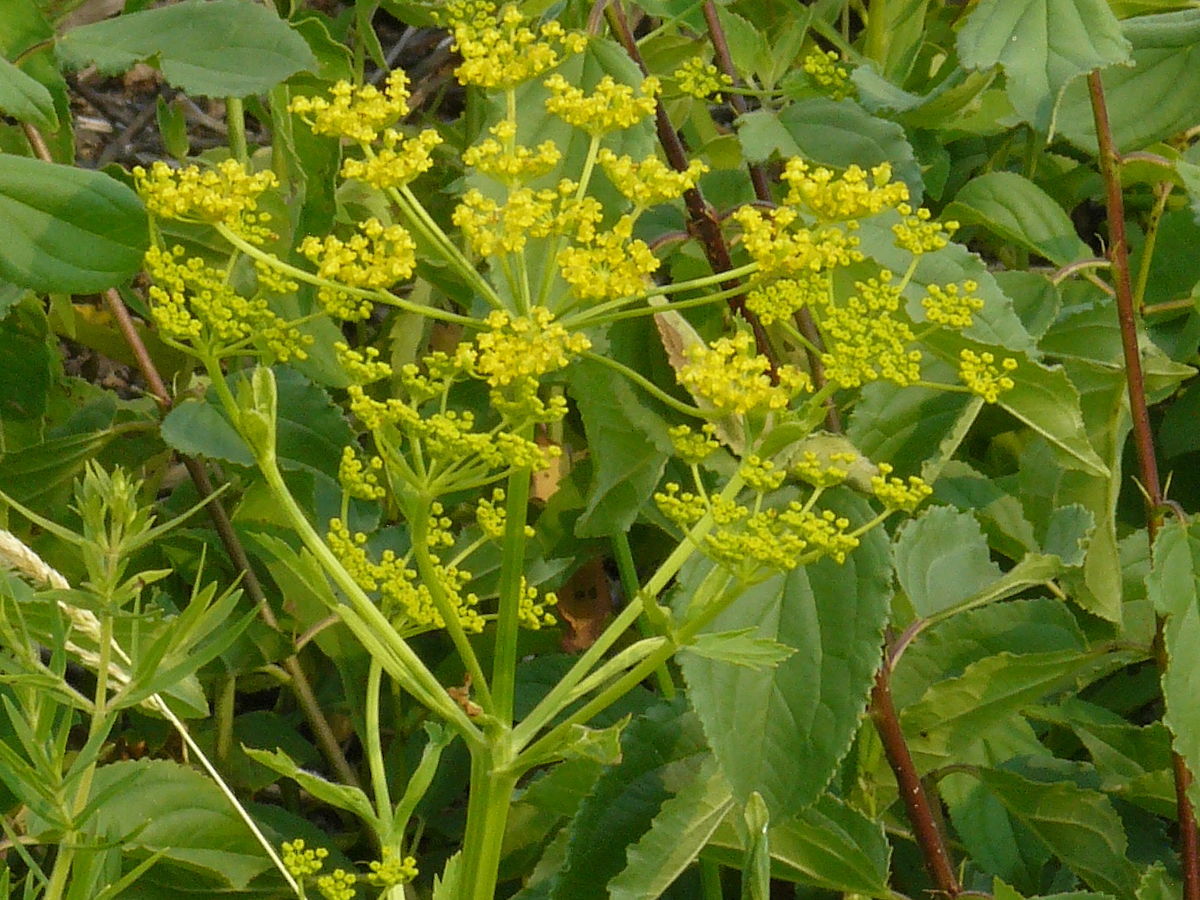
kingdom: Plantae
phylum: Tracheophyta
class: Magnoliopsida
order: Apiales
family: Apiaceae
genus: Pastinaca
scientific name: Pastinaca sativa
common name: Wild parsnip
